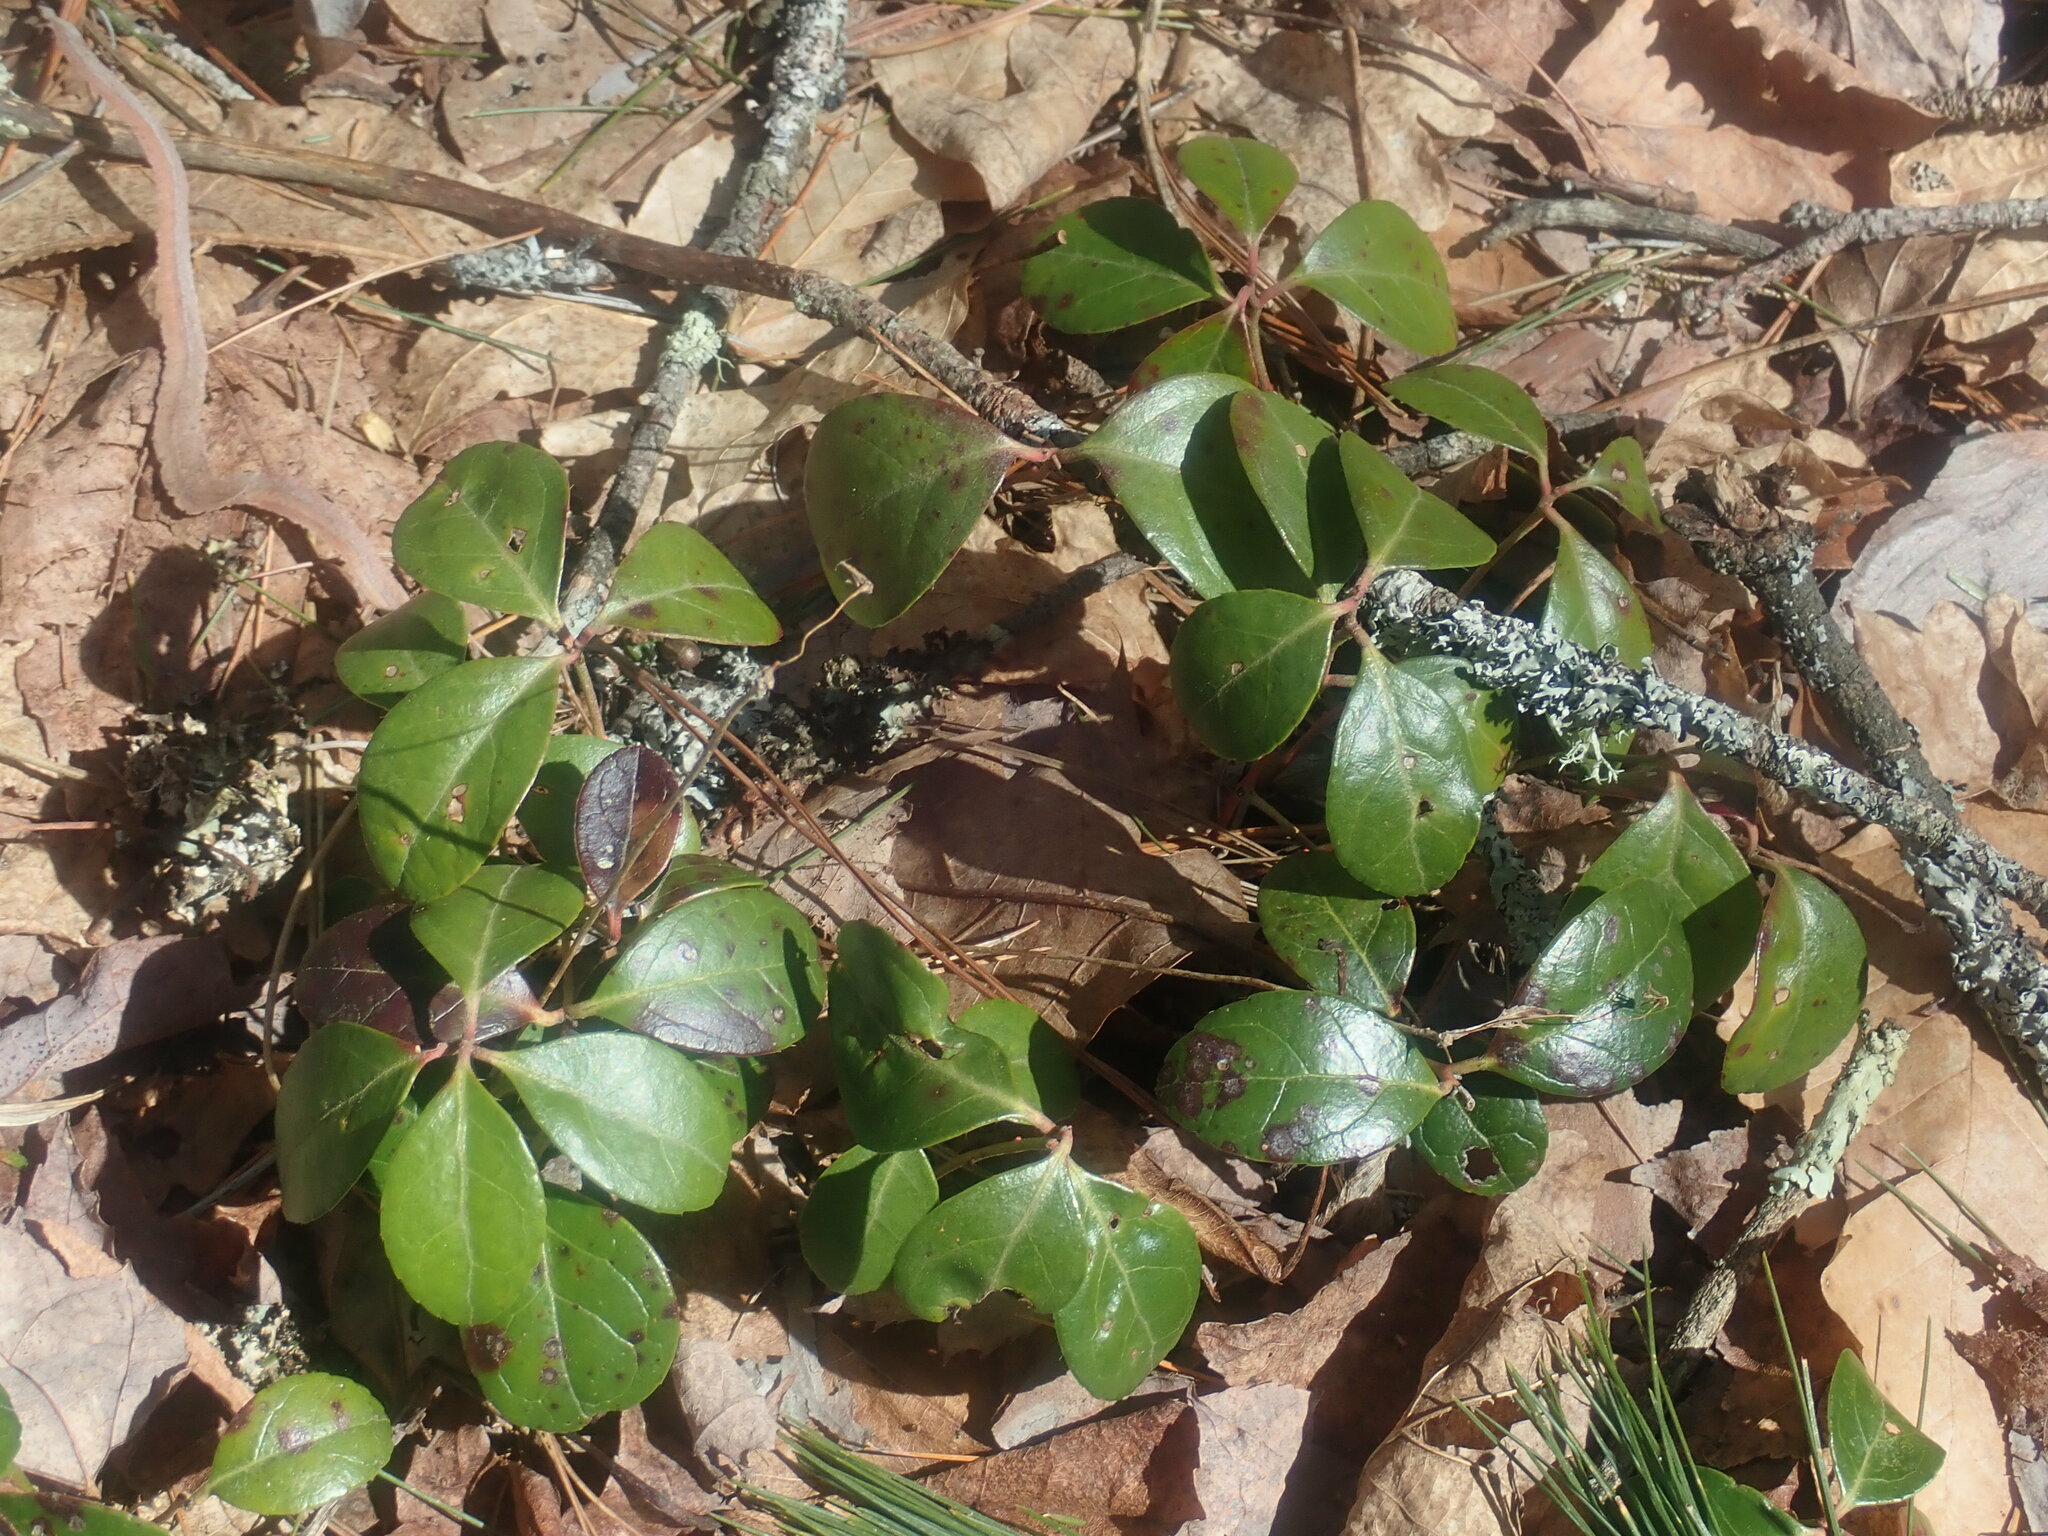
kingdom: Plantae
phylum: Tracheophyta
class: Magnoliopsida
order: Ericales
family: Ericaceae
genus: Gaultheria
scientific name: Gaultheria procumbens
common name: Checkerberry
